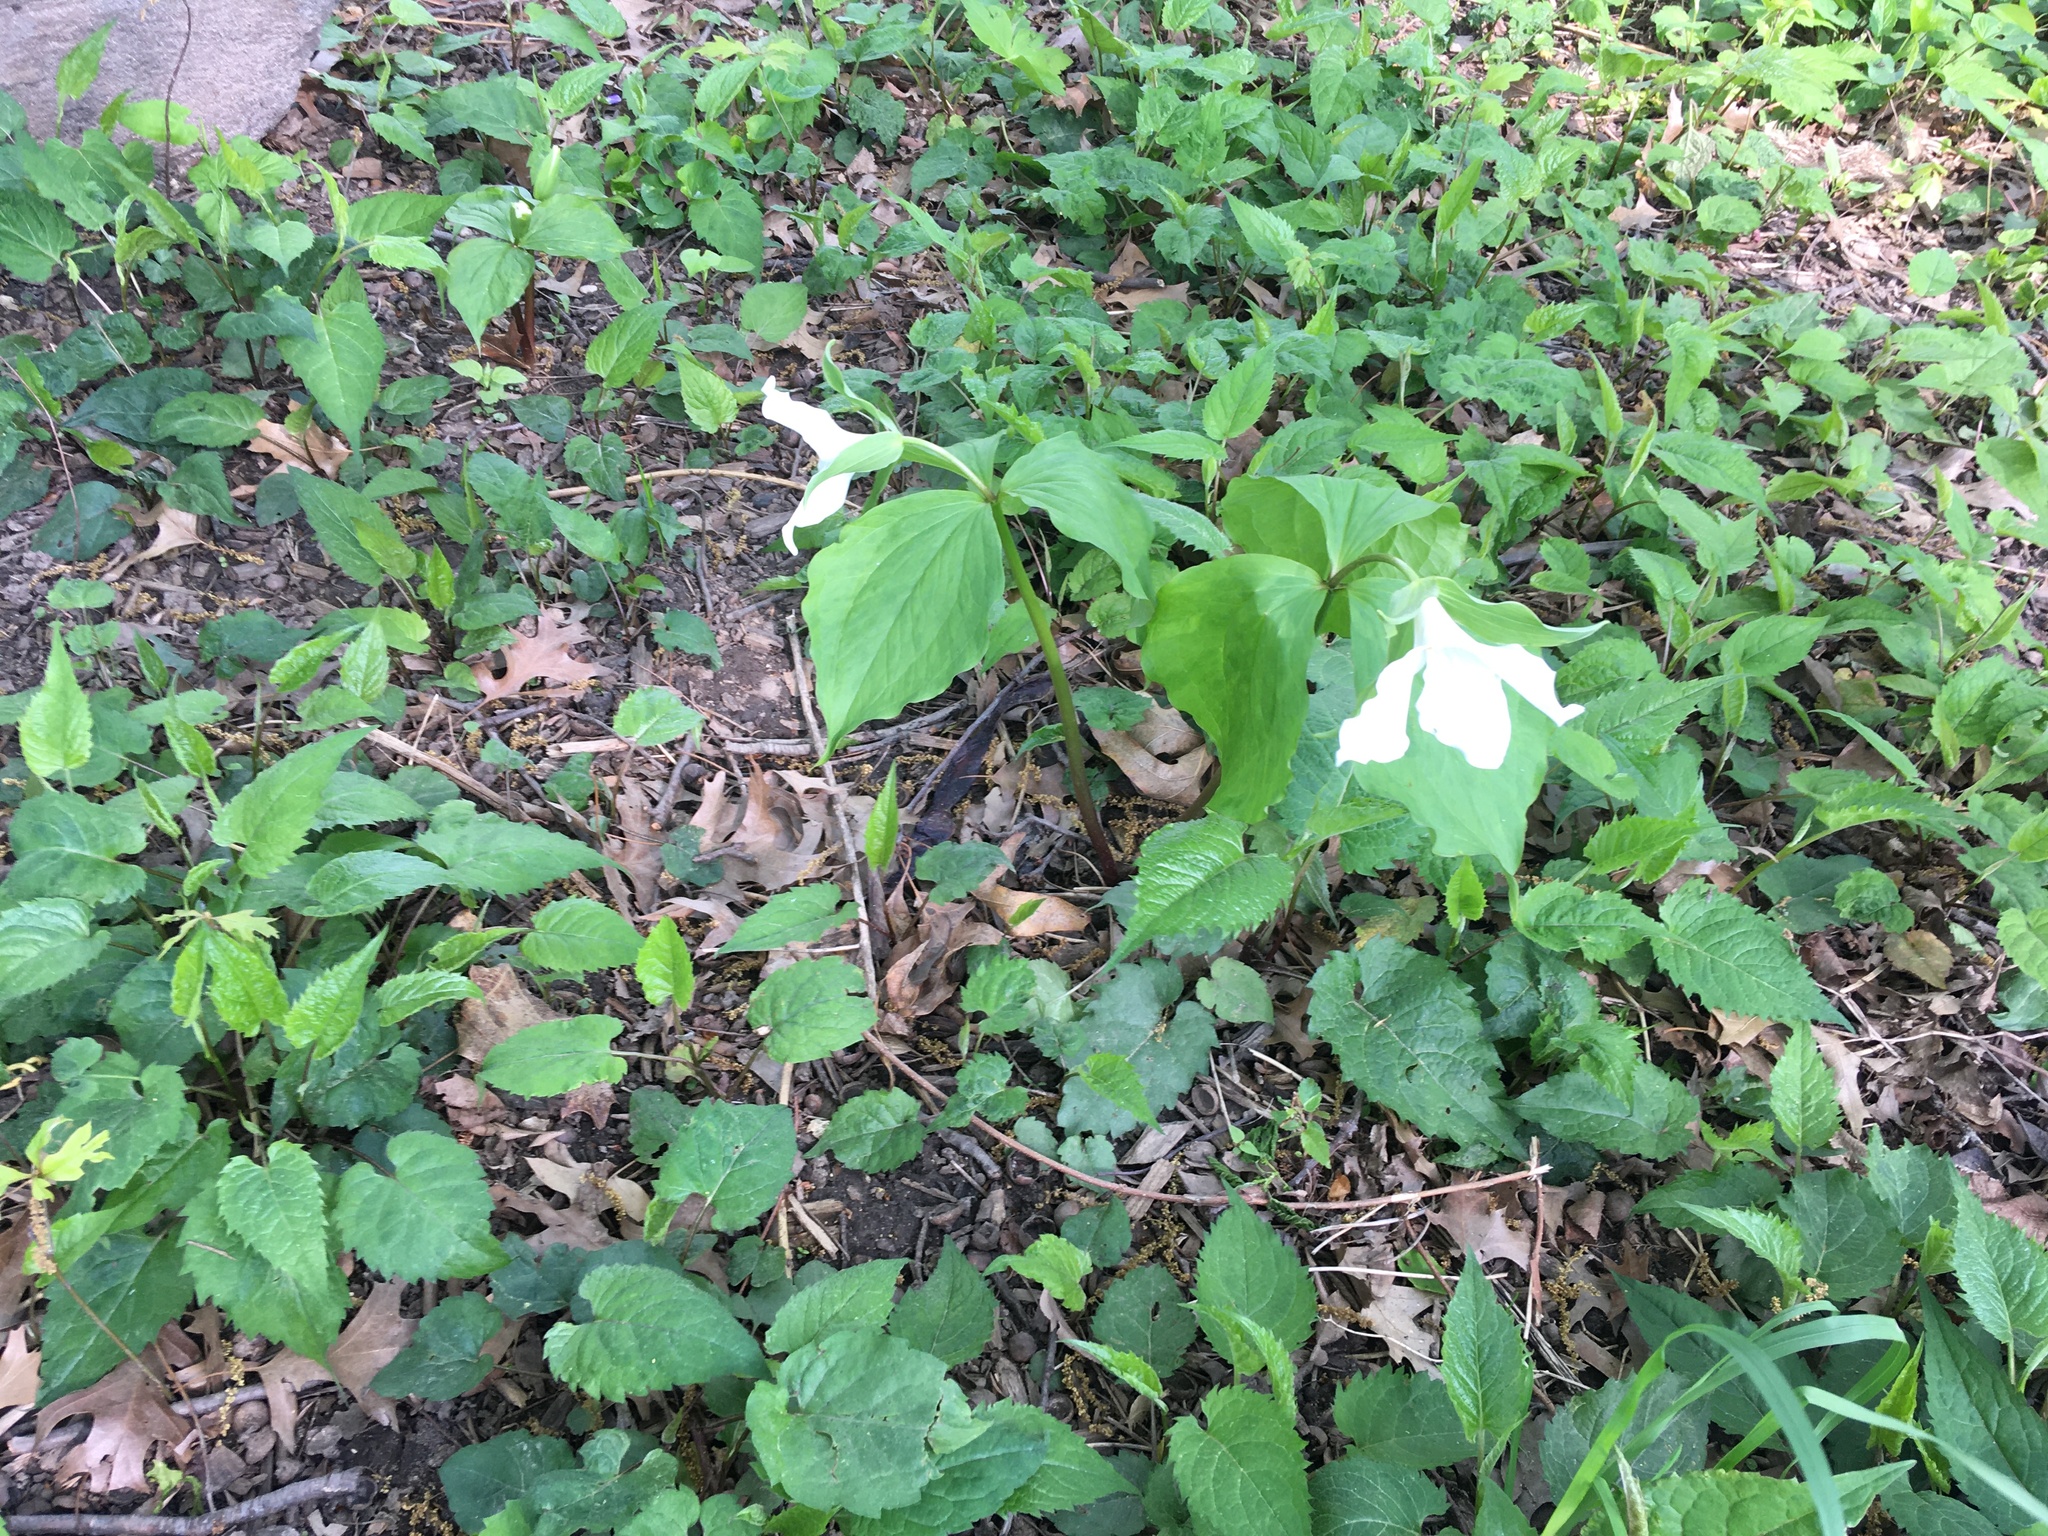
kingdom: Plantae
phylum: Tracheophyta
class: Liliopsida
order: Liliales
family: Melanthiaceae
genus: Trillium
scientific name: Trillium grandiflorum
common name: Great white trillium
